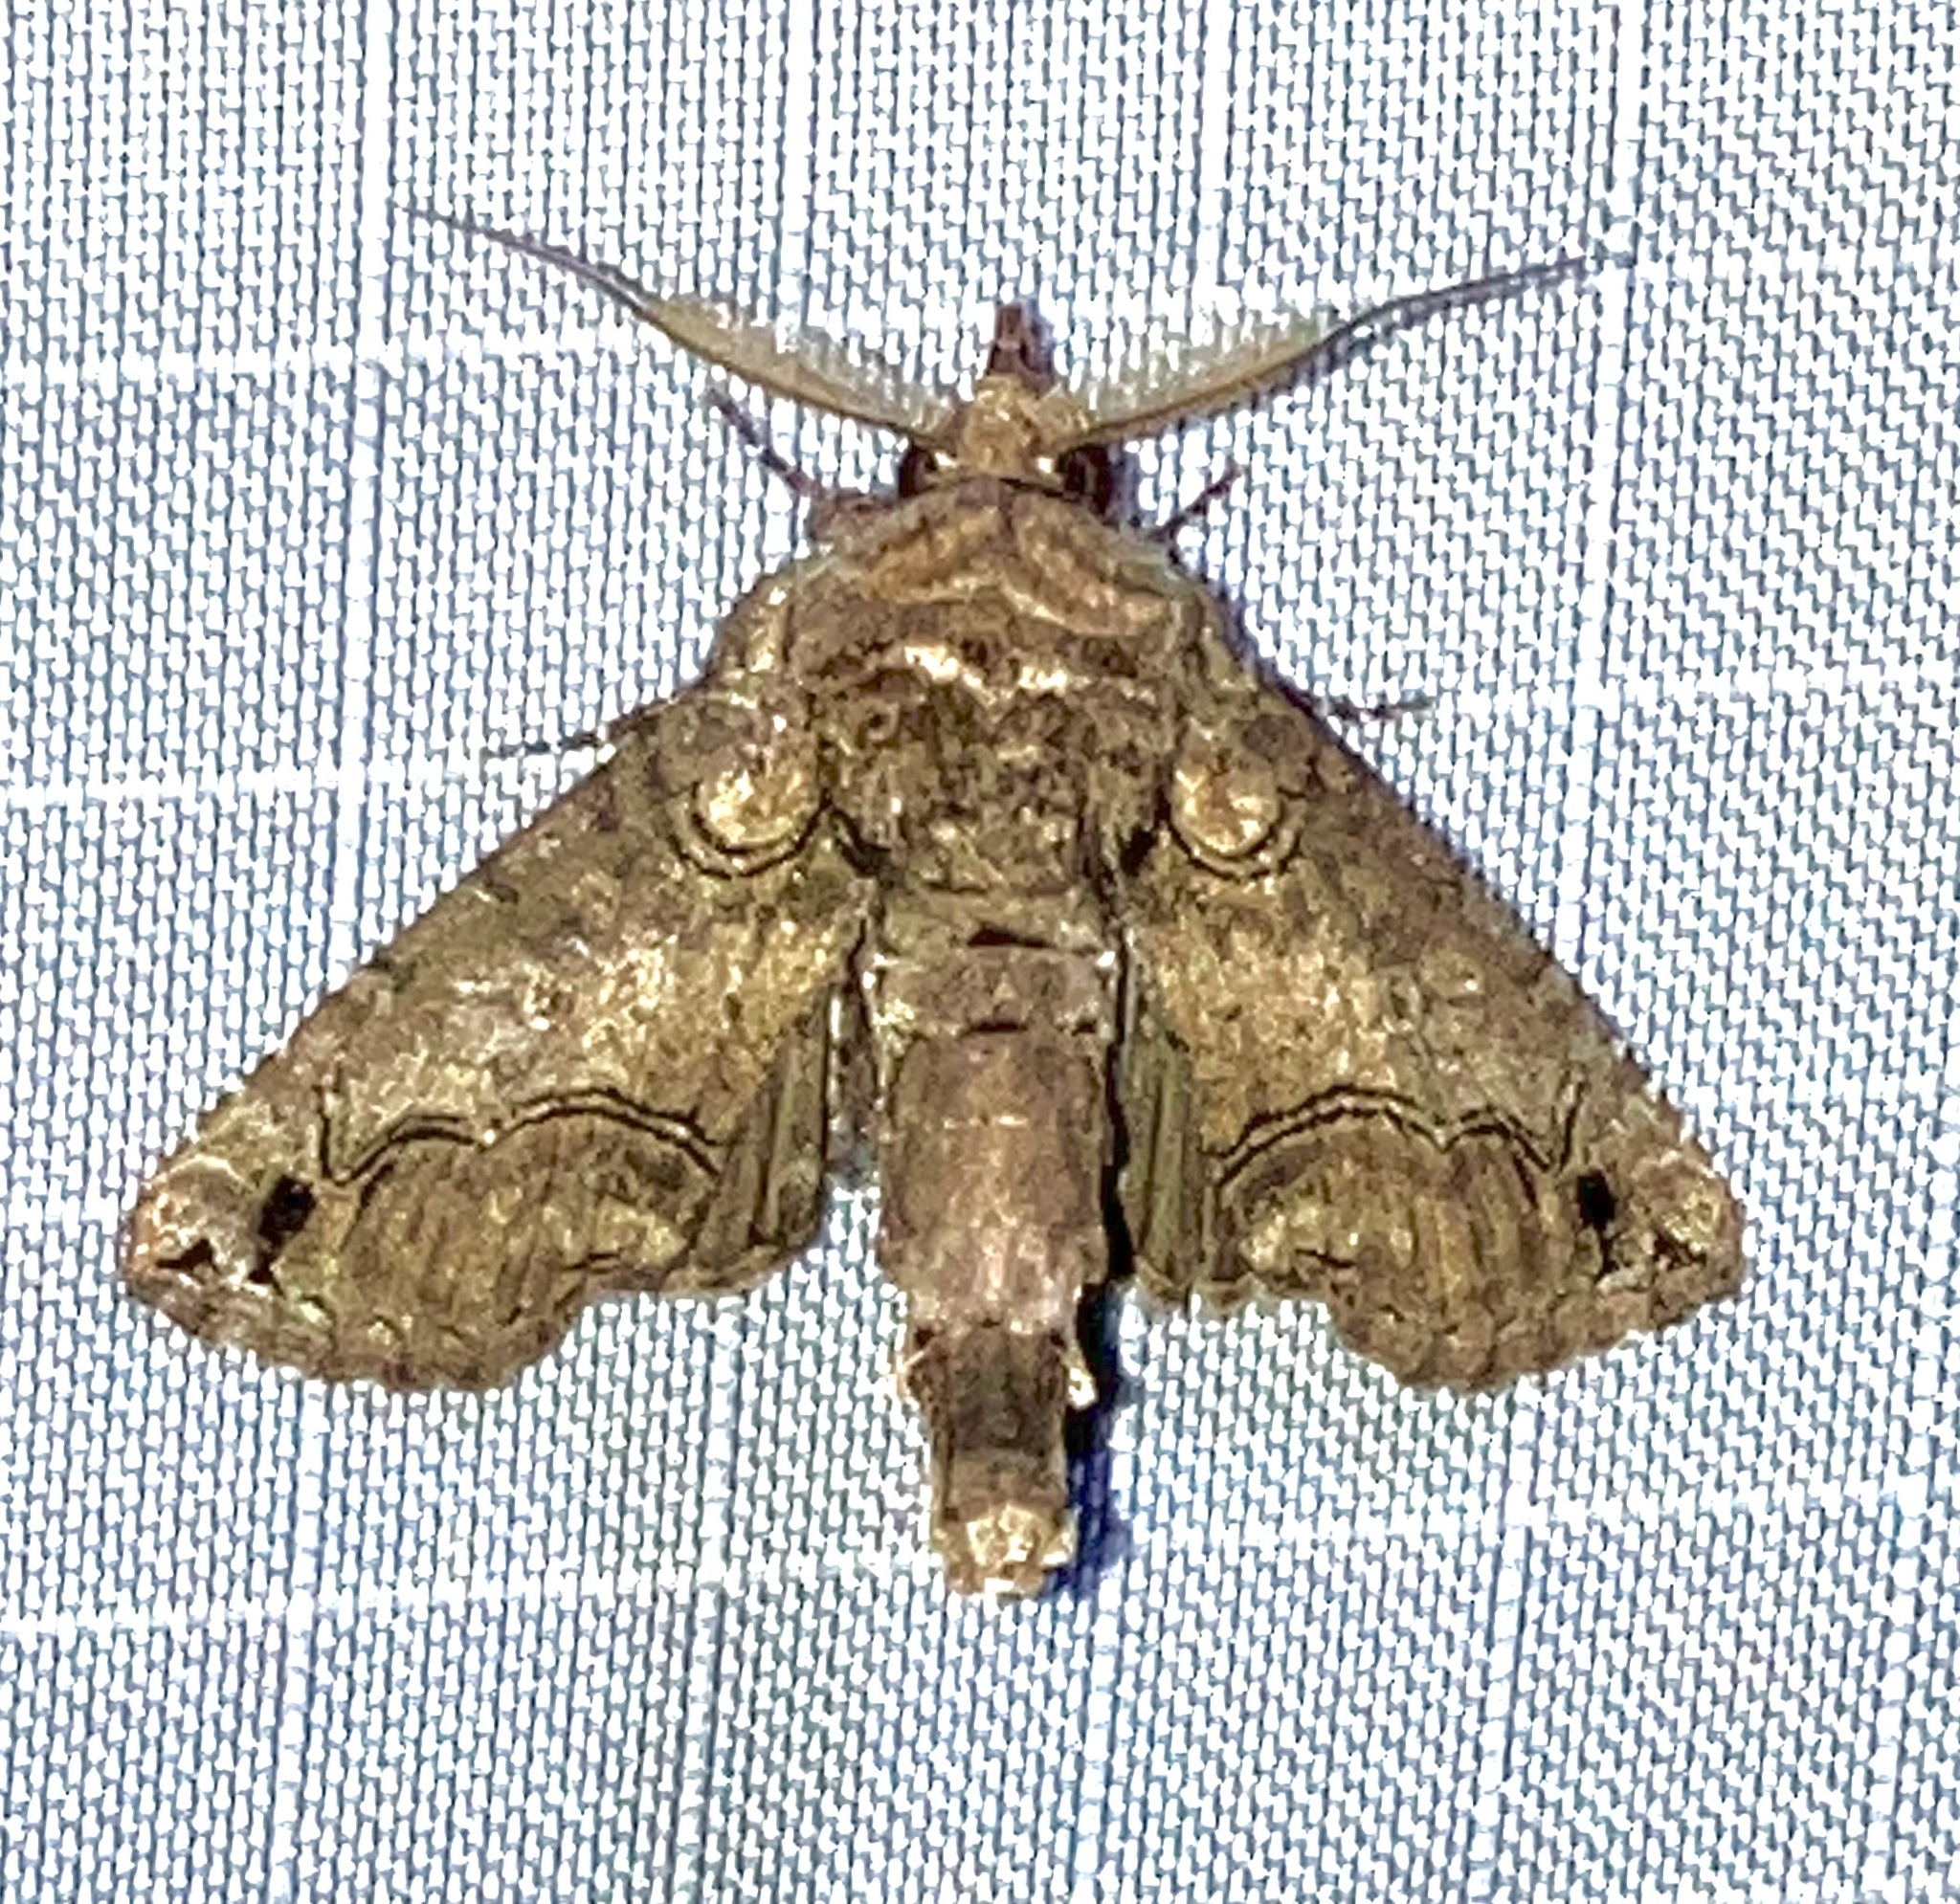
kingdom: Animalia
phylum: Arthropoda
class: Insecta
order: Lepidoptera
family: Euteliidae
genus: Paectes
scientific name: Paectes abrostoloides
